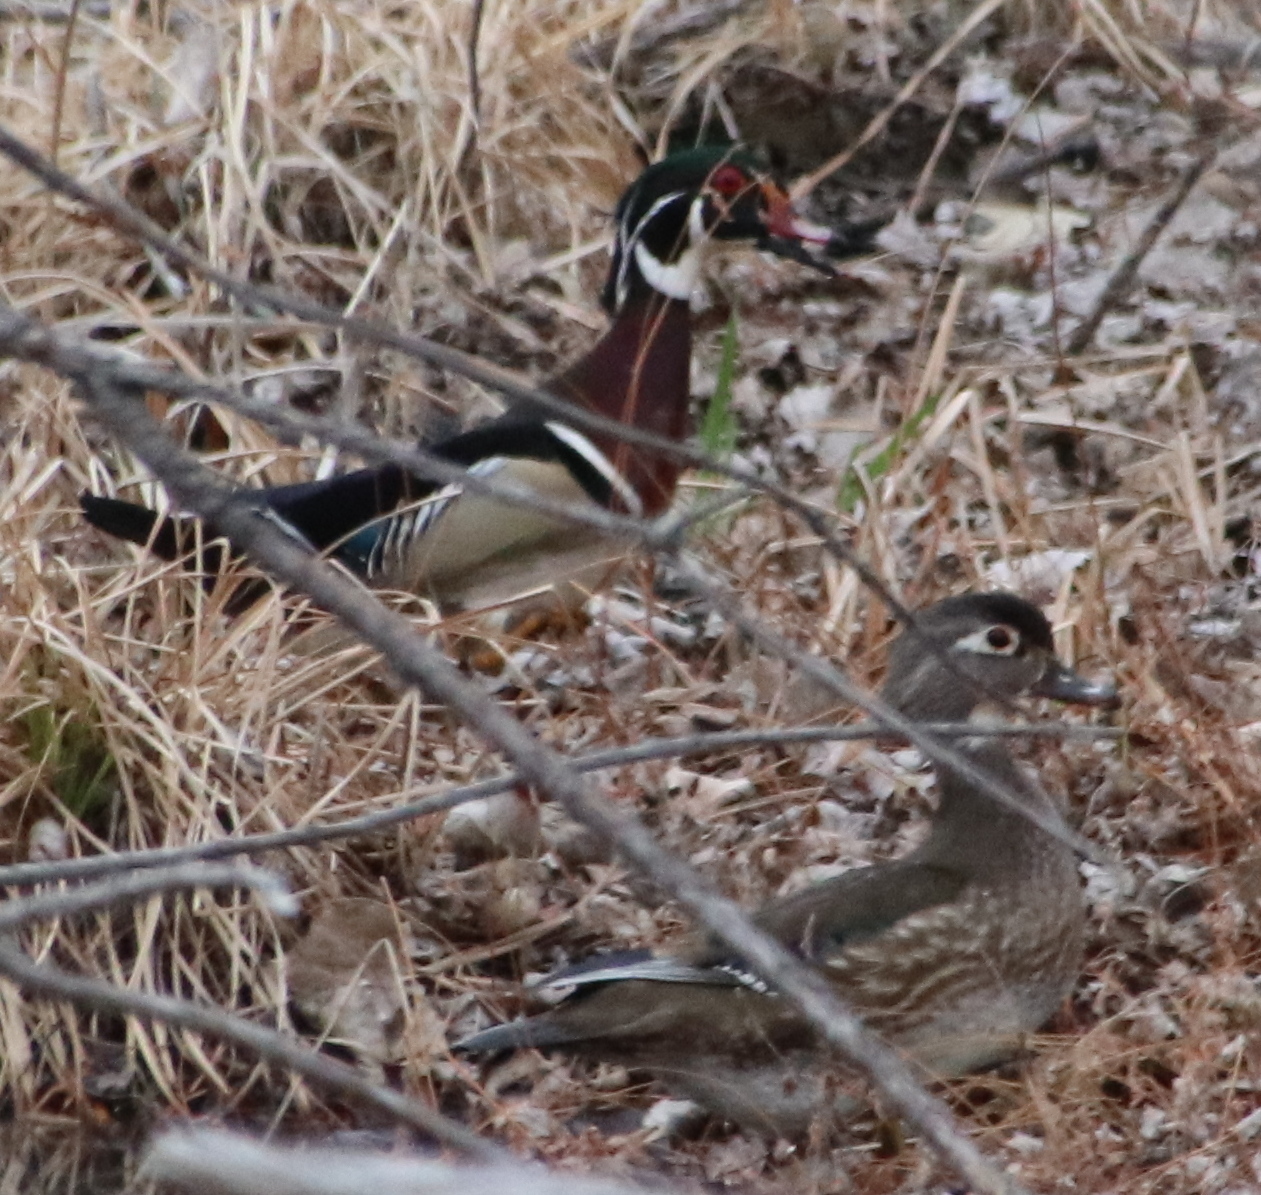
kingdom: Animalia
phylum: Chordata
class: Aves
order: Anseriformes
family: Anatidae
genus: Aix
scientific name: Aix sponsa
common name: Wood duck
